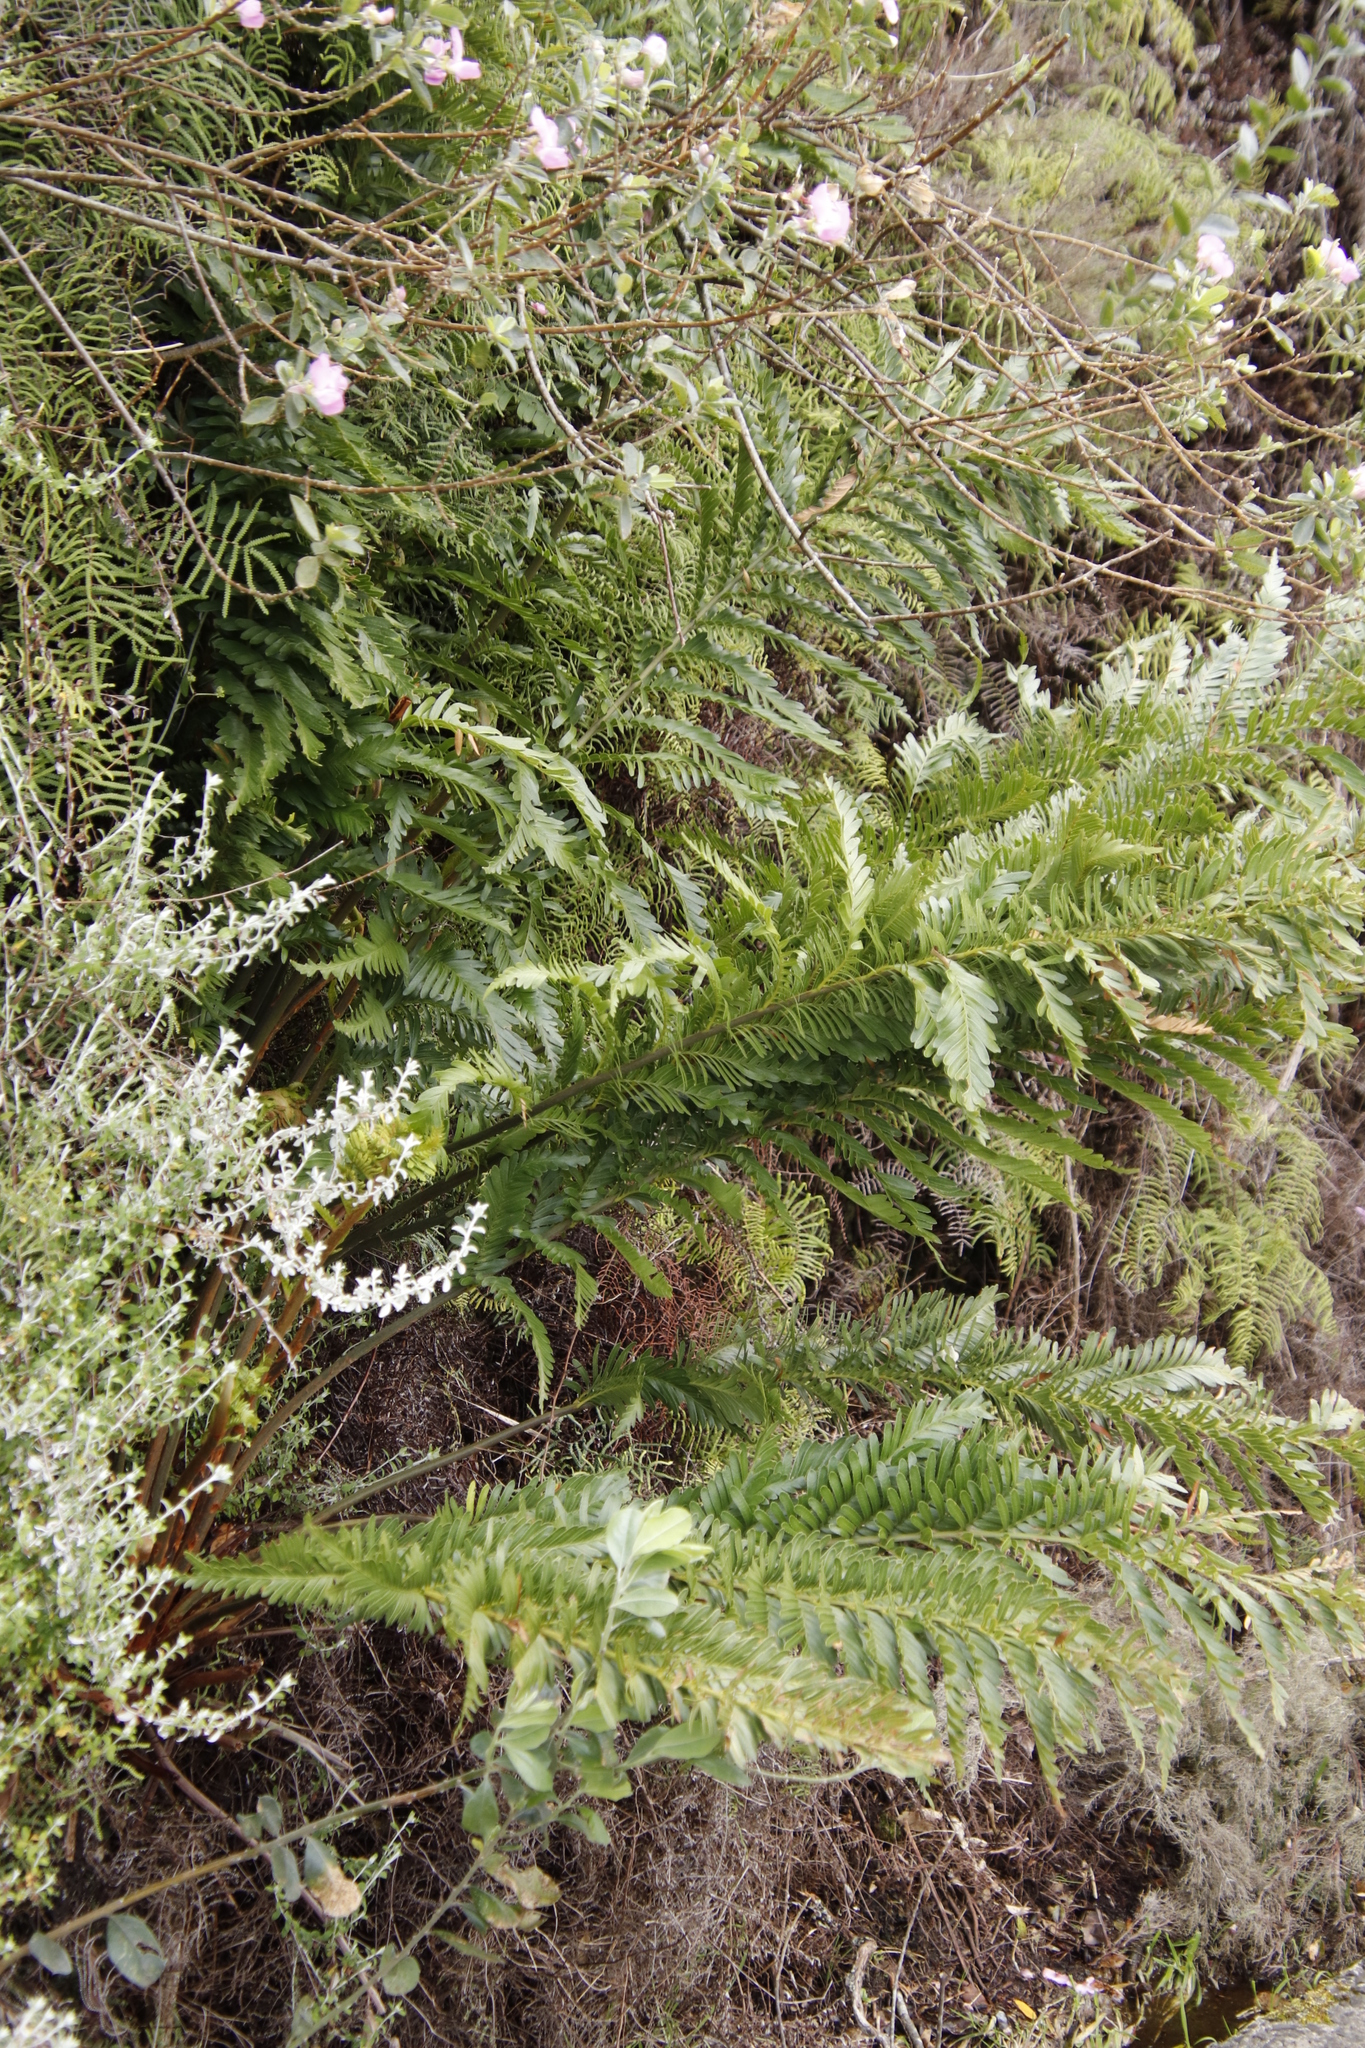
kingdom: Plantae
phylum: Tracheophyta
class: Polypodiopsida
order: Osmundales
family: Osmundaceae
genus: Todea
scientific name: Todea barbara
